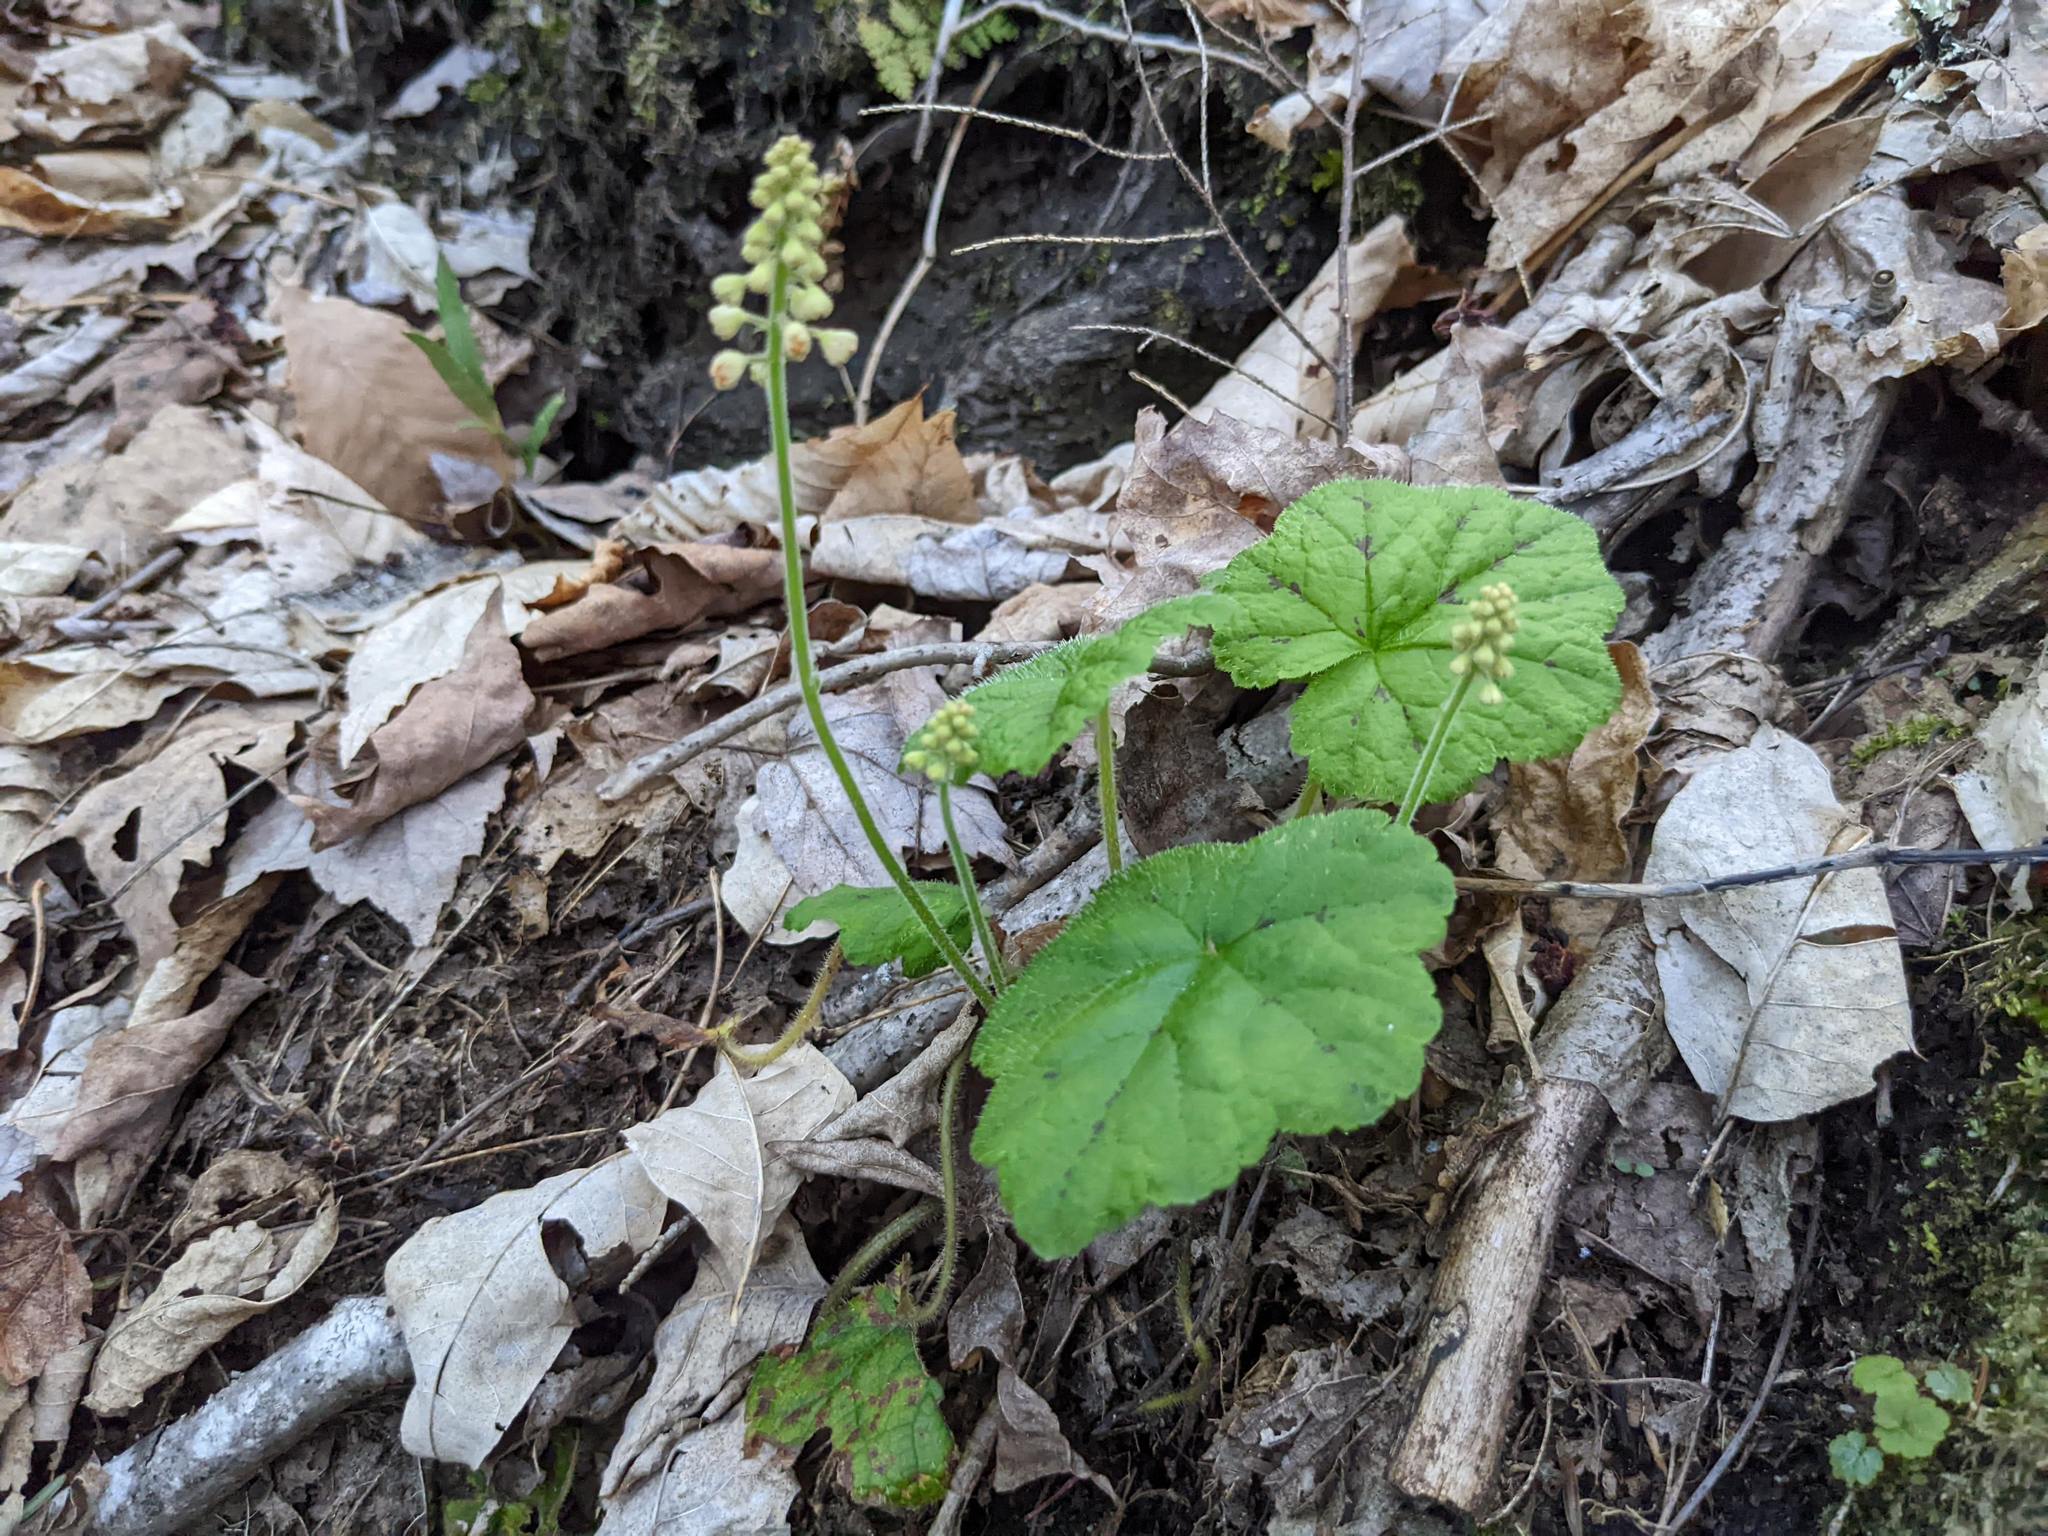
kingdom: Plantae
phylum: Tracheophyta
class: Magnoliopsida
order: Saxifragales
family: Saxifragaceae
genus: Tiarella
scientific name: Tiarella stolonifera
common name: Stoloniferous foamflower
